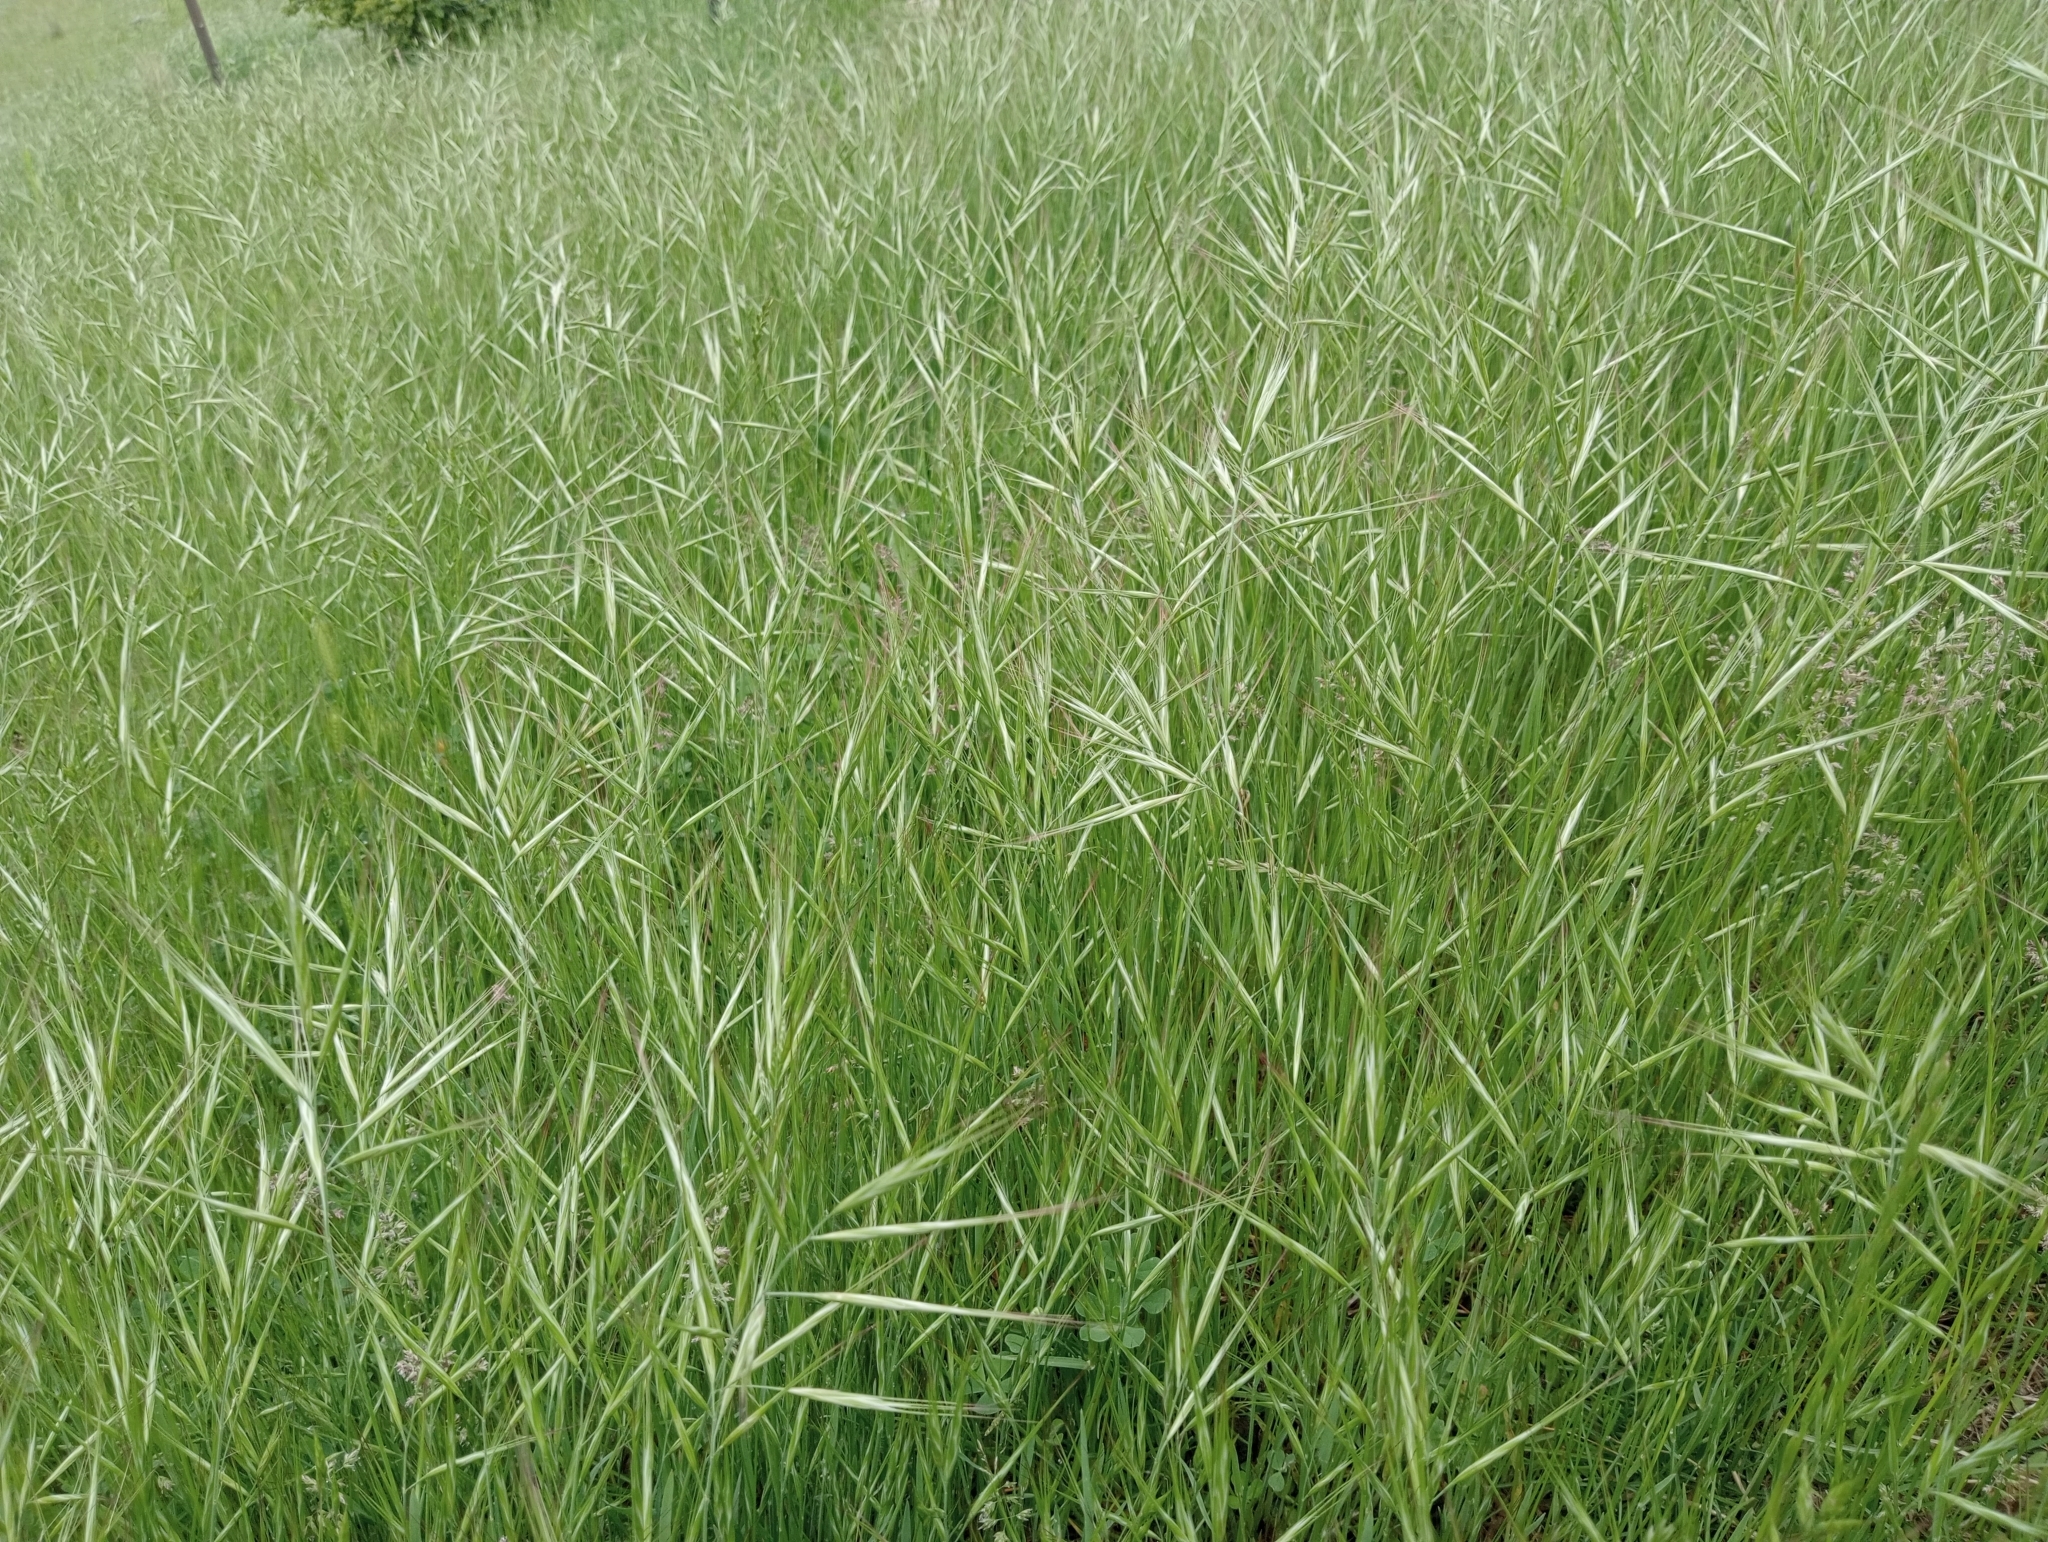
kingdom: Plantae
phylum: Tracheophyta
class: Liliopsida
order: Poales
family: Poaceae
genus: Bromus
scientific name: Bromus diandrus
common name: Ripgut brome
